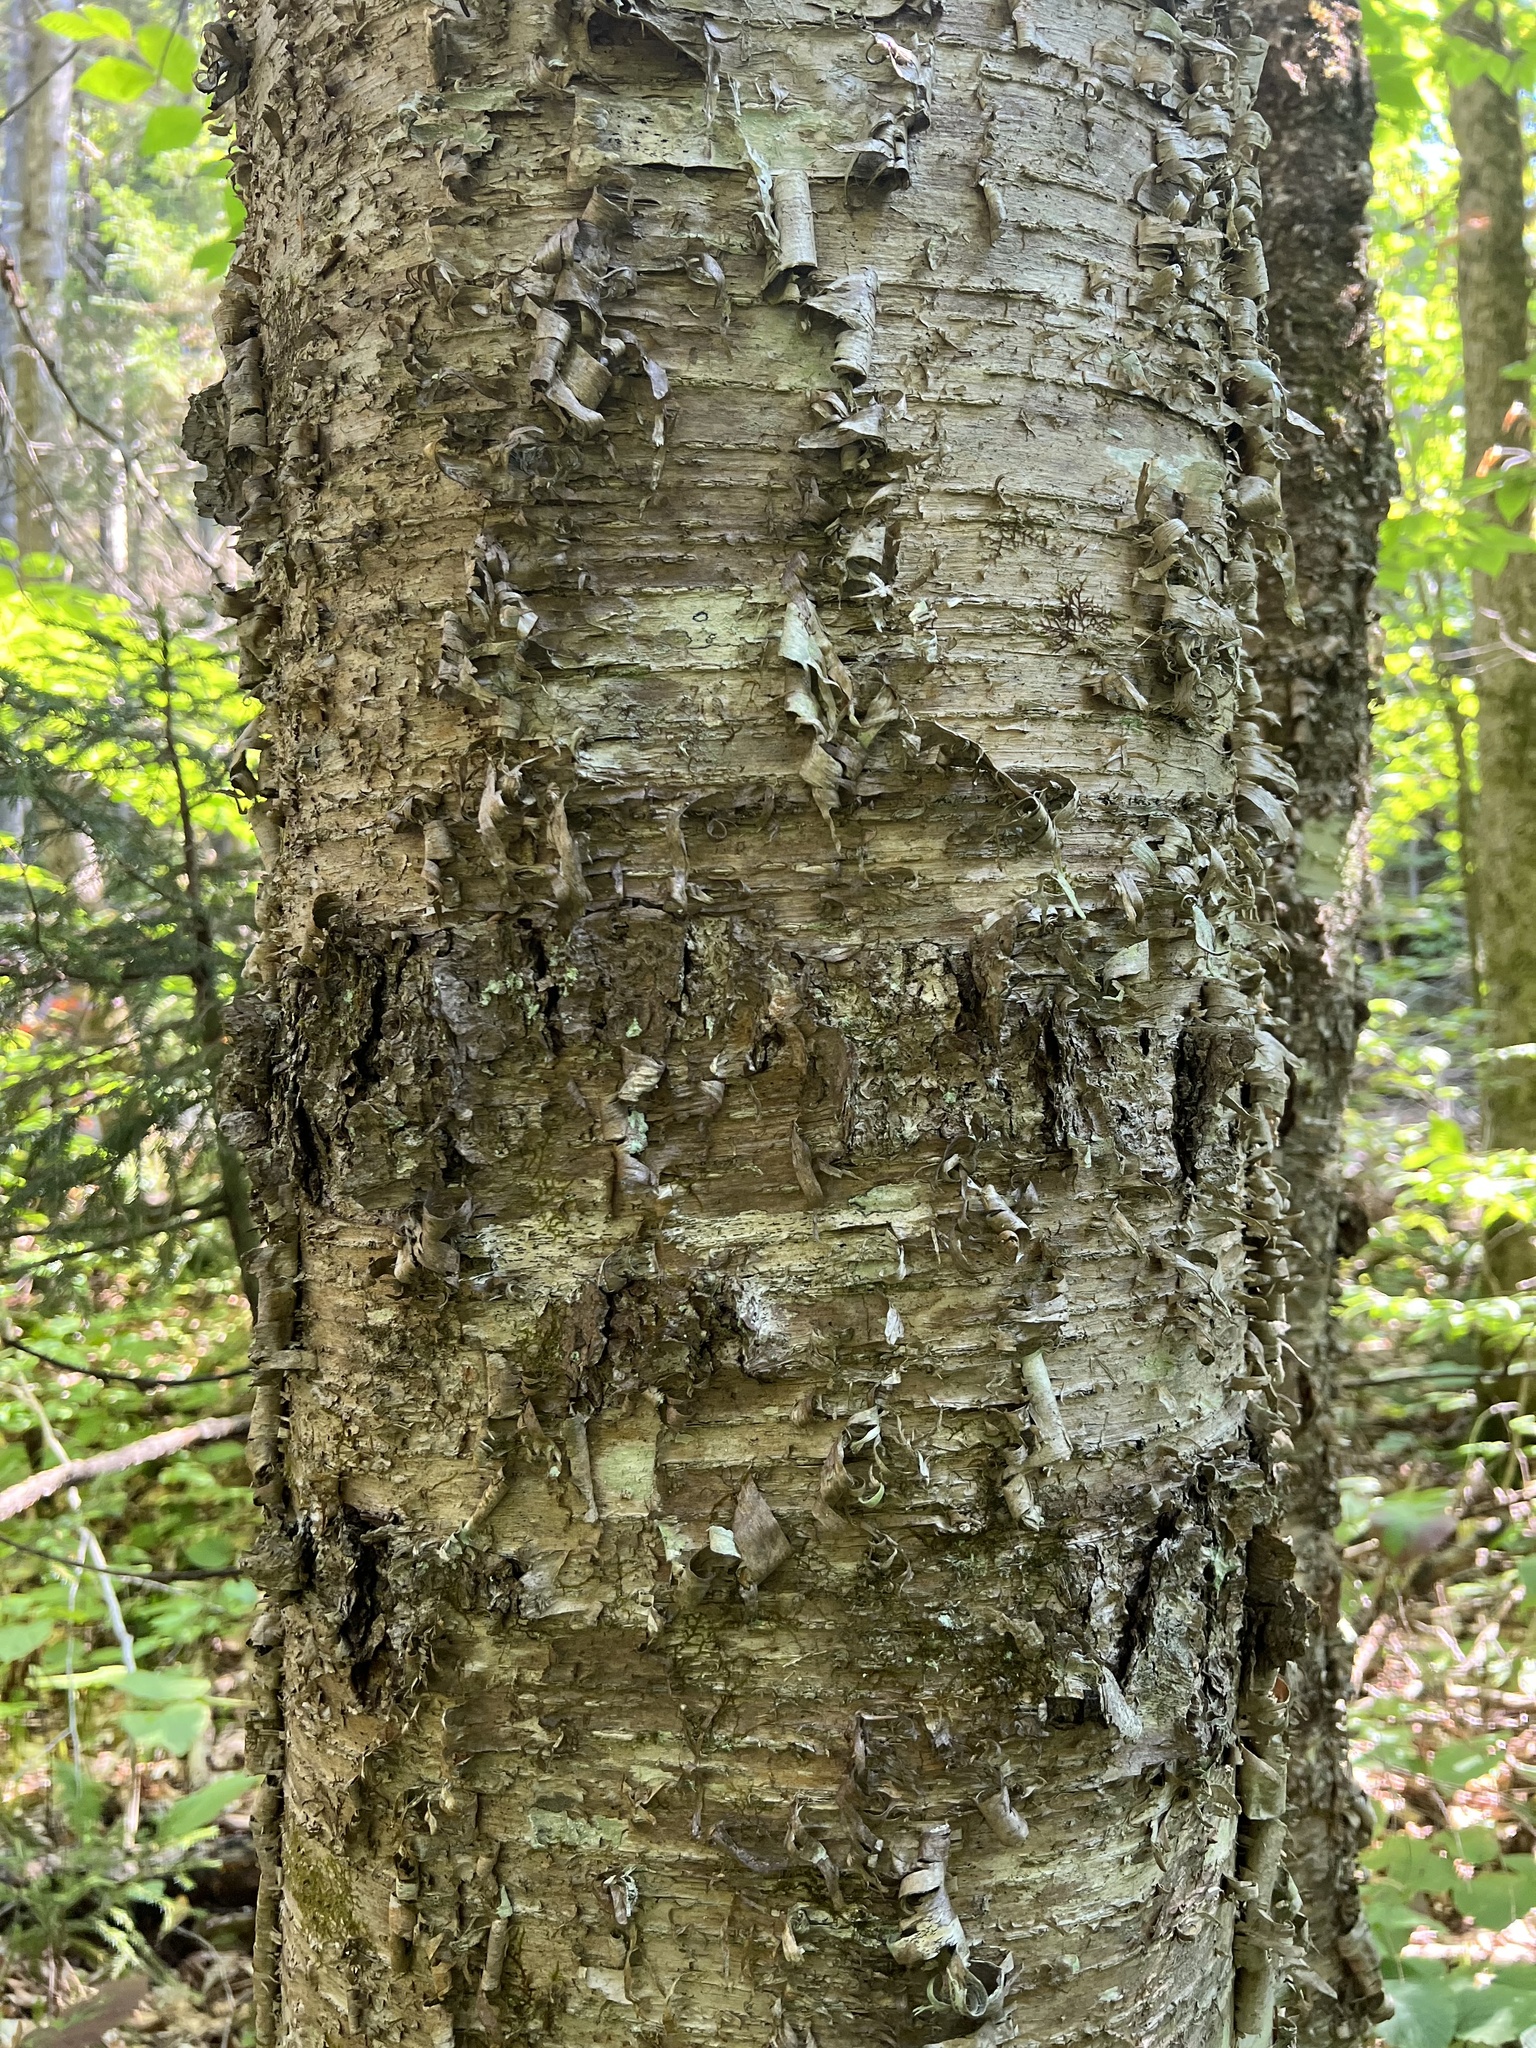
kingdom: Plantae
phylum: Tracheophyta
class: Magnoliopsida
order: Fagales
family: Betulaceae
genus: Betula
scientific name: Betula alleghaniensis
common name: Yellow birch
